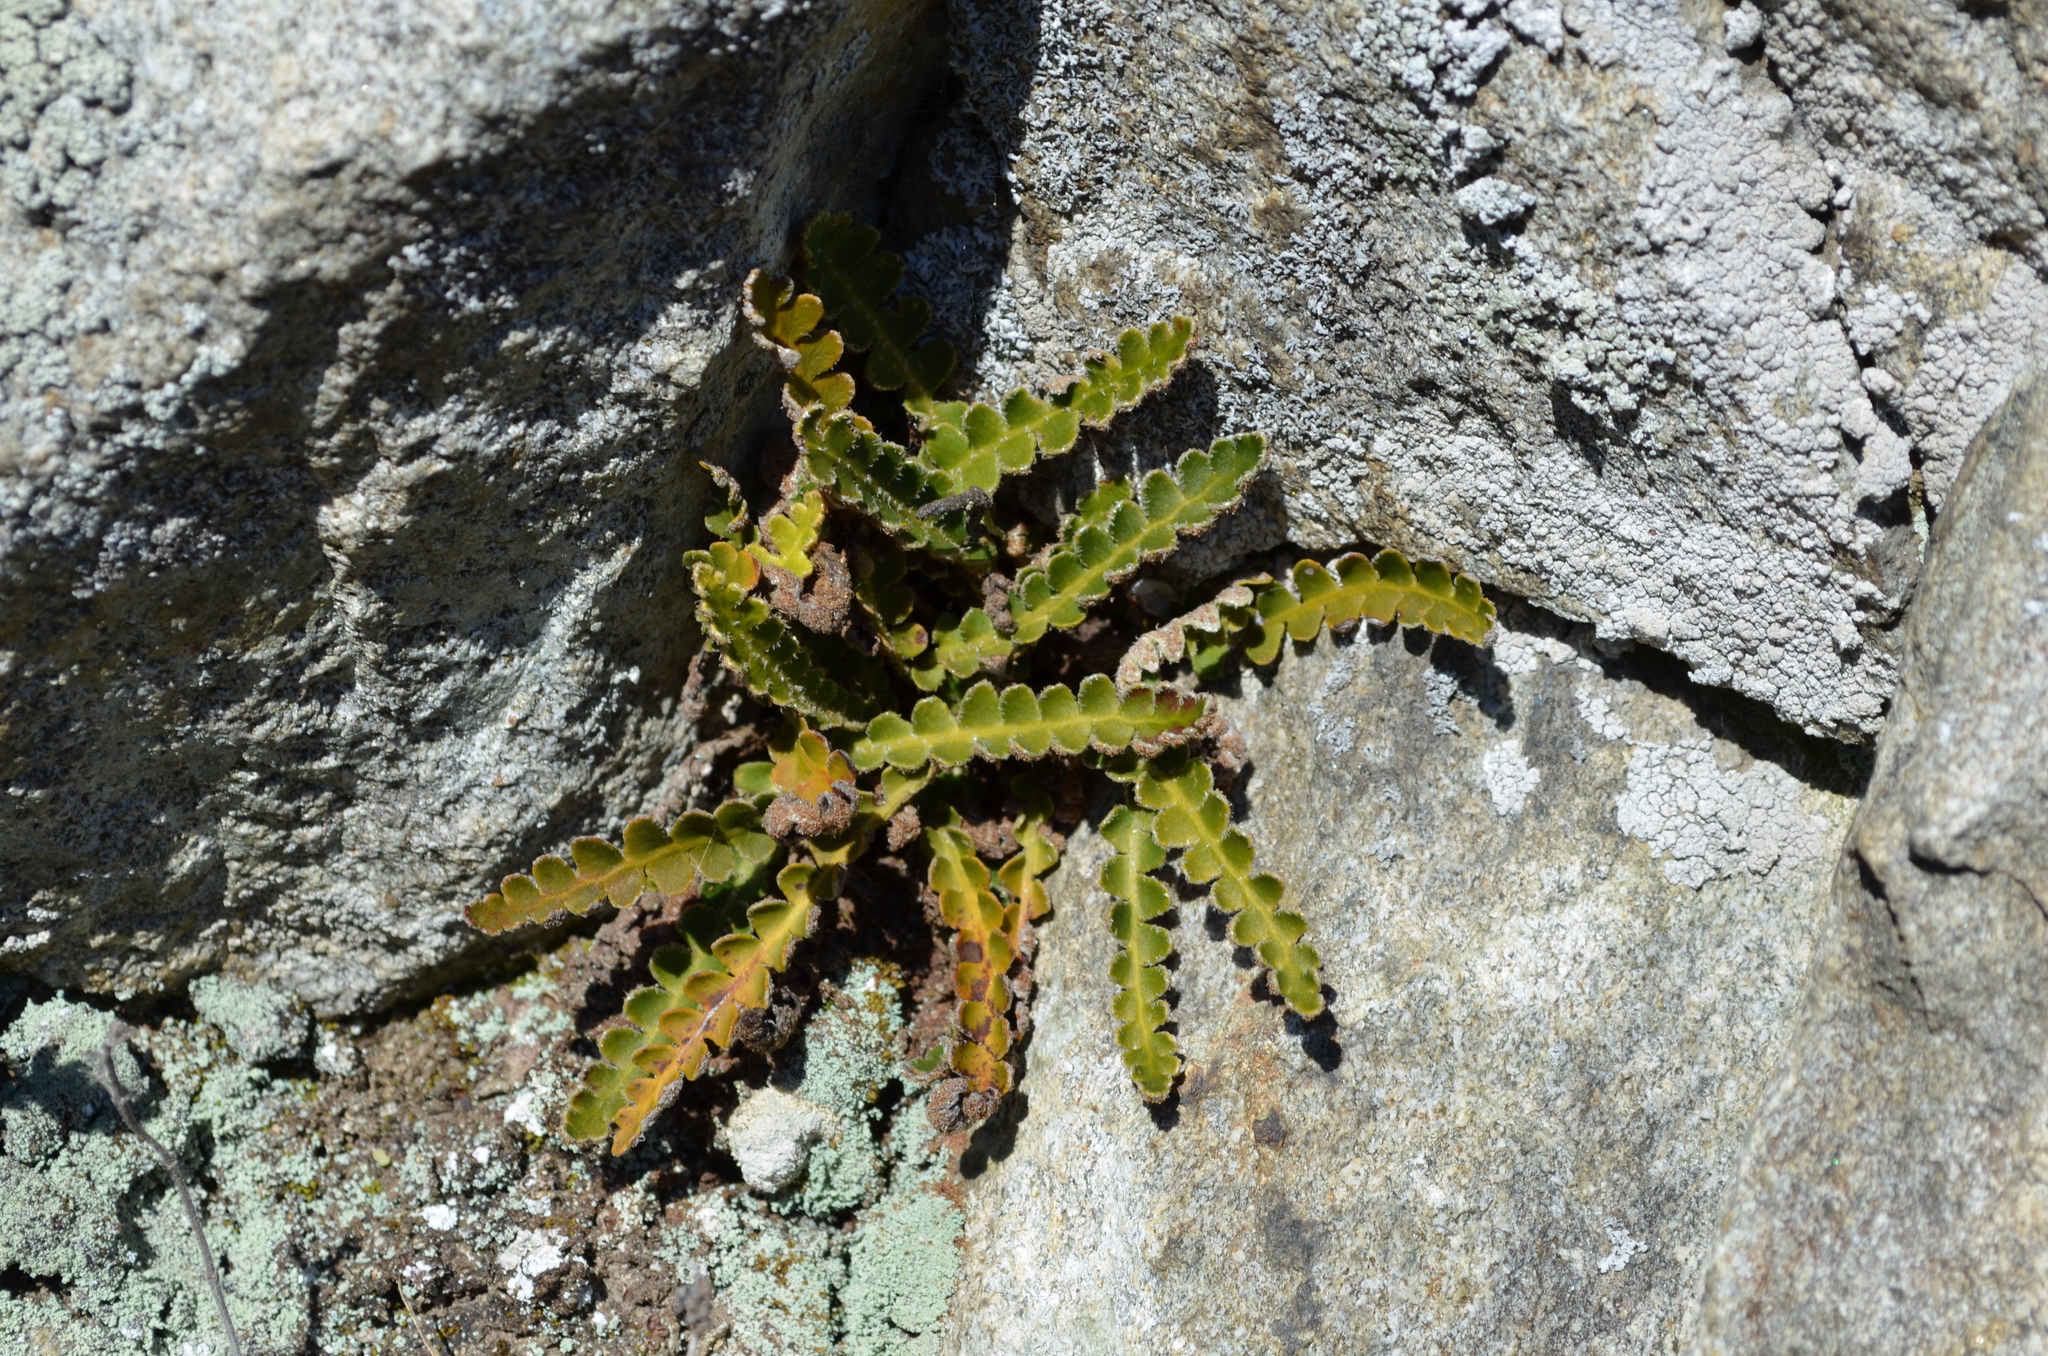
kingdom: Plantae
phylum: Tracheophyta
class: Polypodiopsida
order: Polypodiales
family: Aspleniaceae
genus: Asplenium
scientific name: Asplenium ceterach
